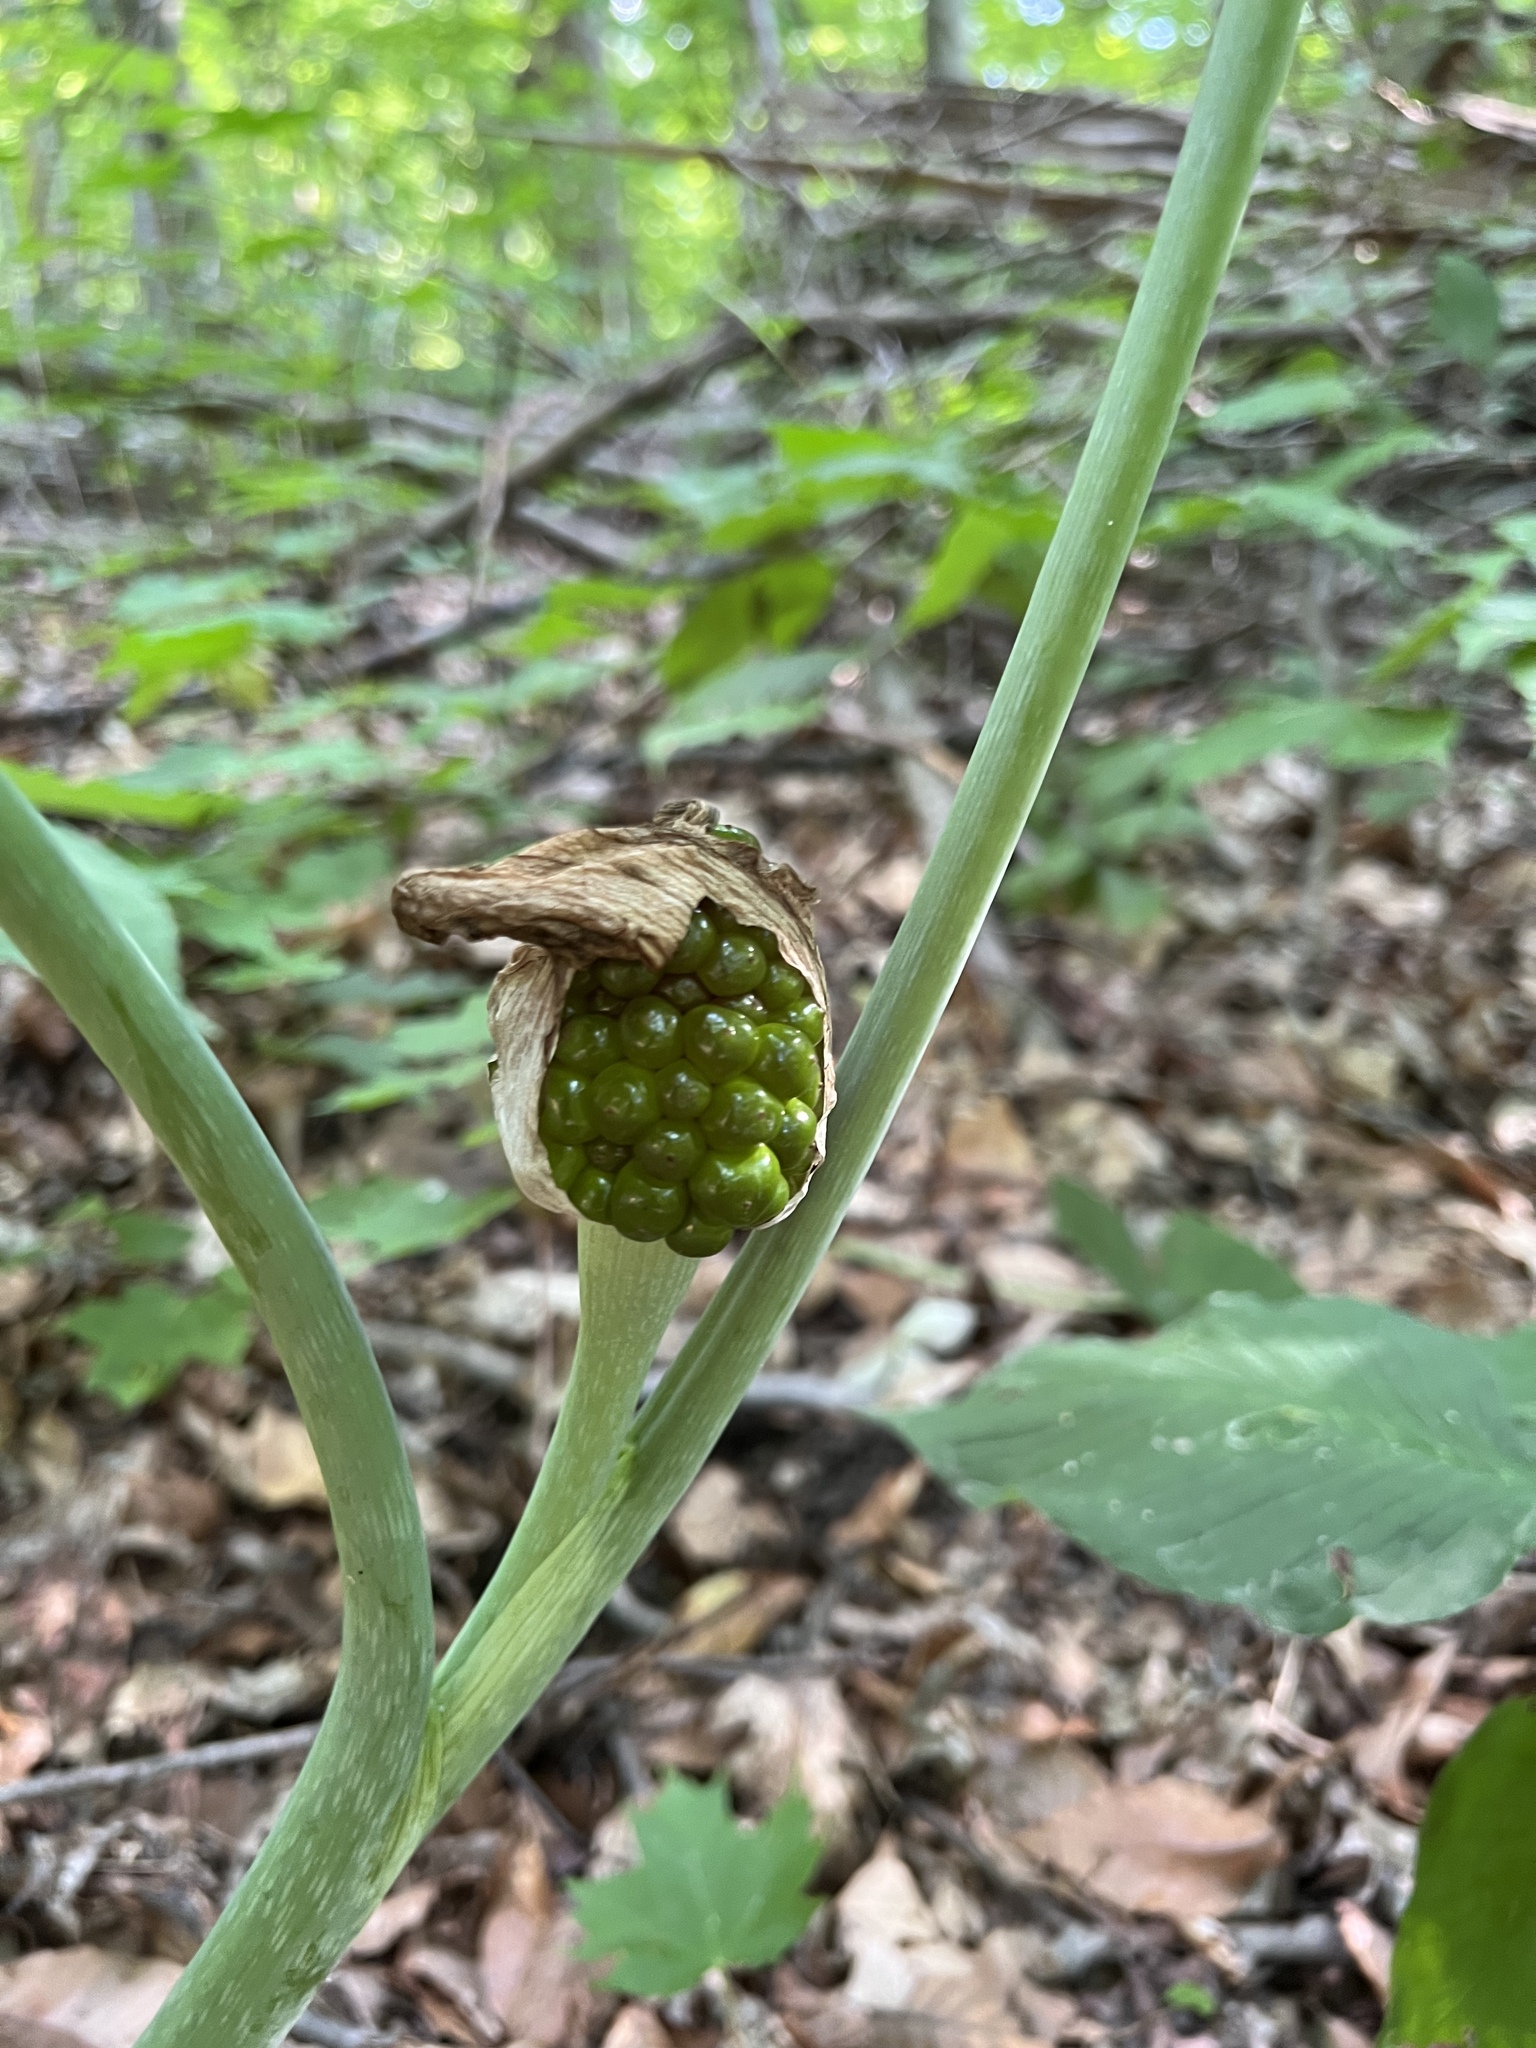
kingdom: Plantae
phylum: Tracheophyta
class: Liliopsida
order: Alismatales
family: Araceae
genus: Arisaema
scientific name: Arisaema triphyllum
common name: Jack-in-the-pulpit
